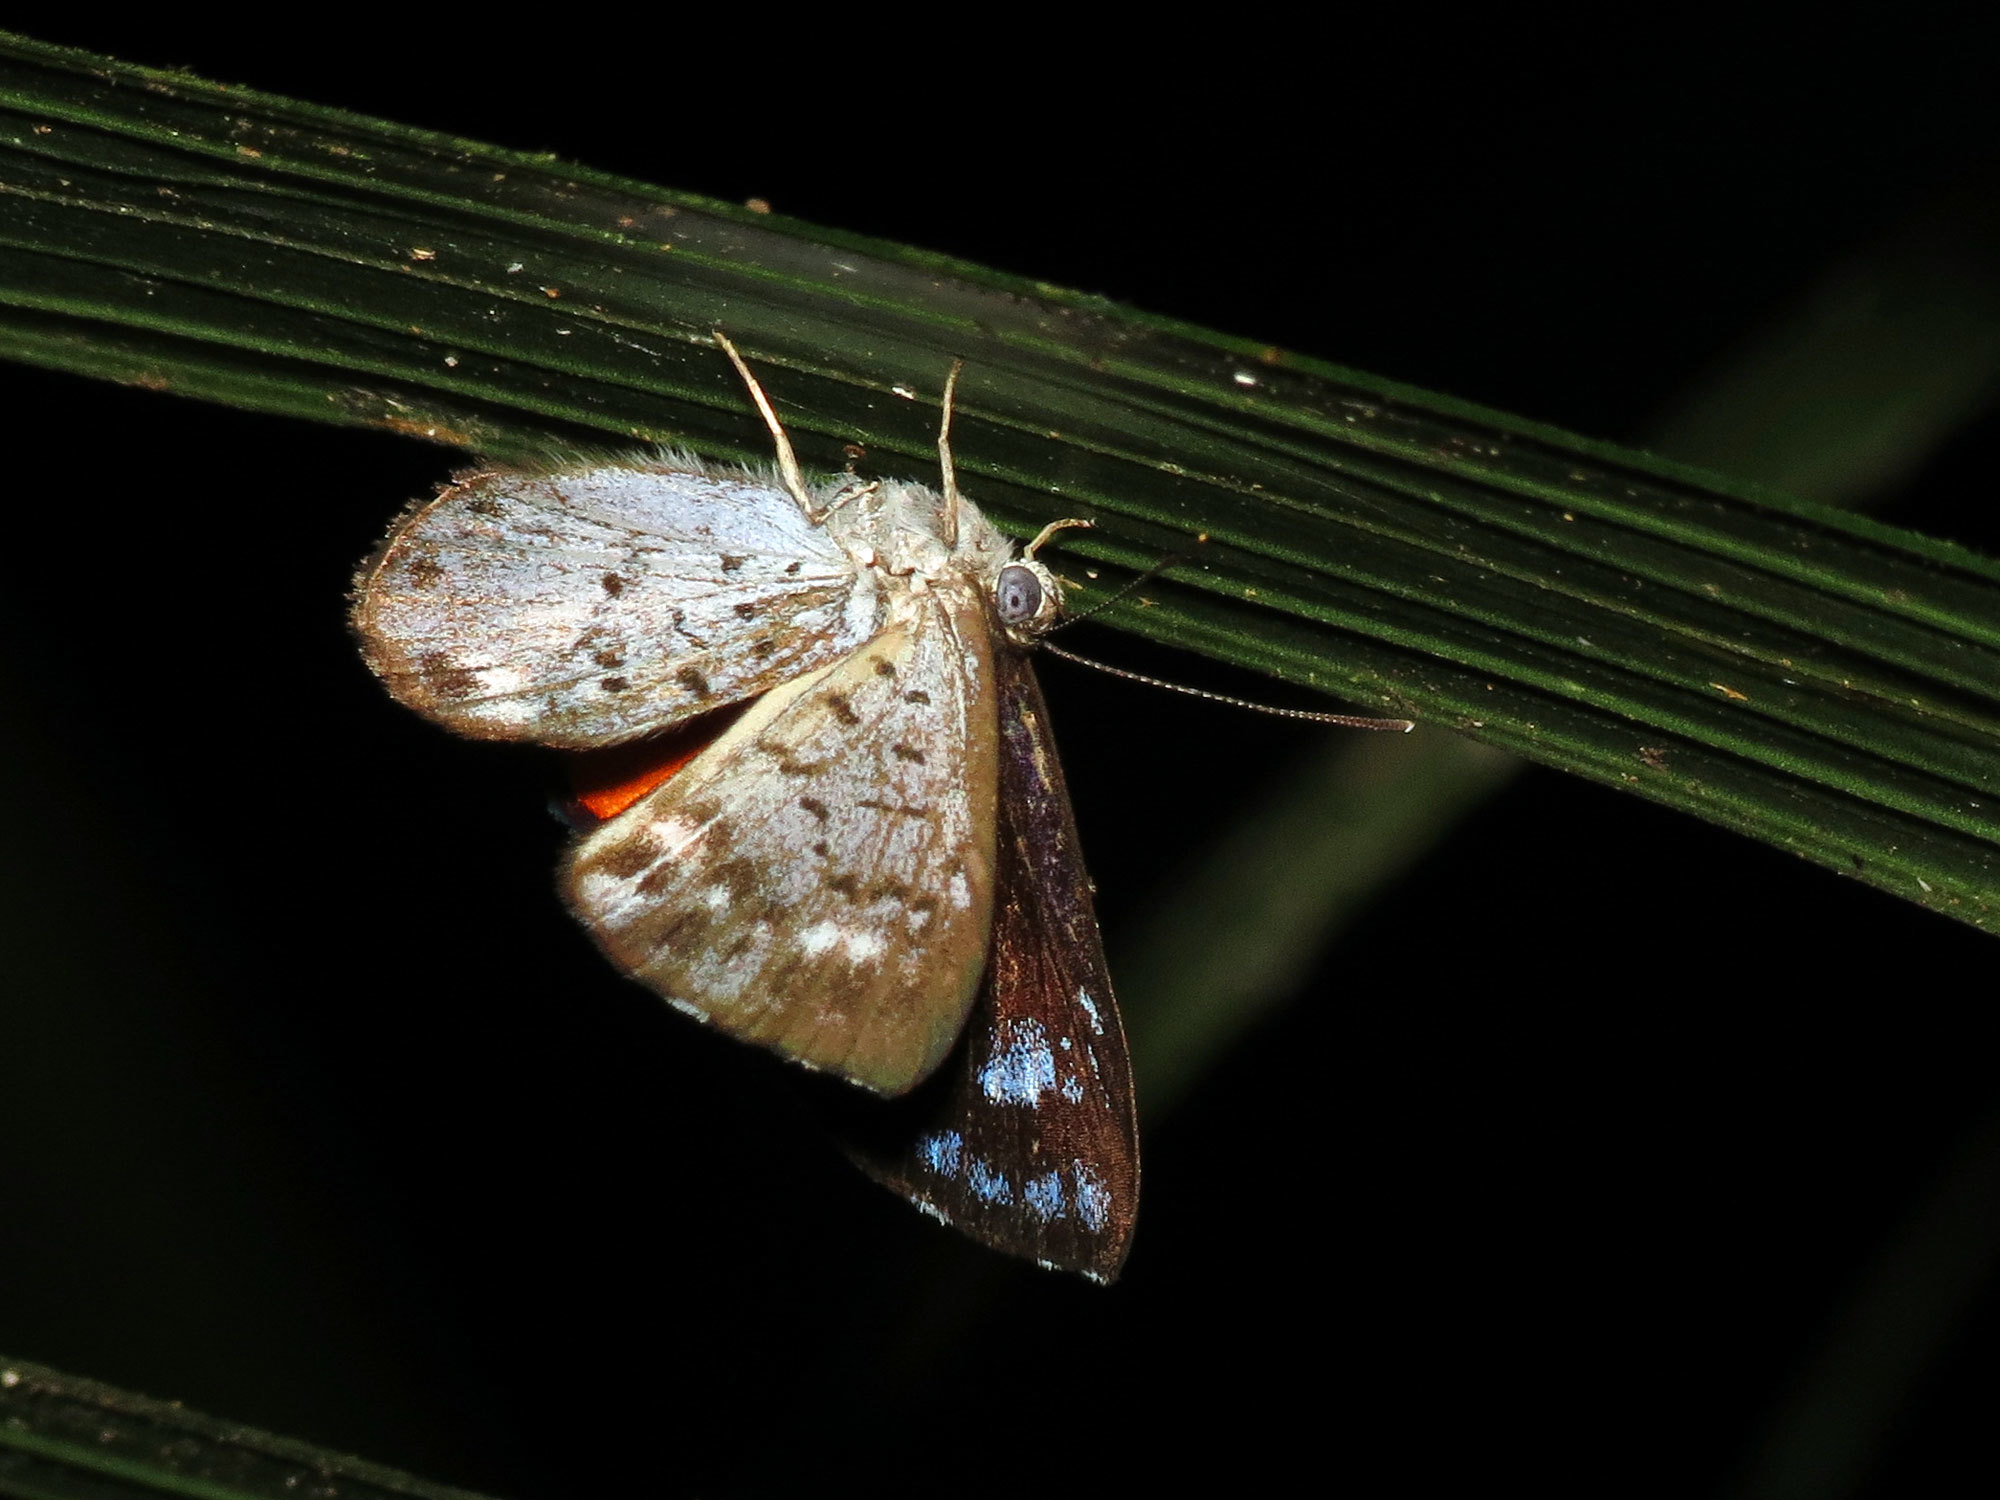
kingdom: Animalia
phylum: Arthropoda
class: Insecta
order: Lepidoptera
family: Riodinidae
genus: Polystichtis
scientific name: Polystichtis parthaon
